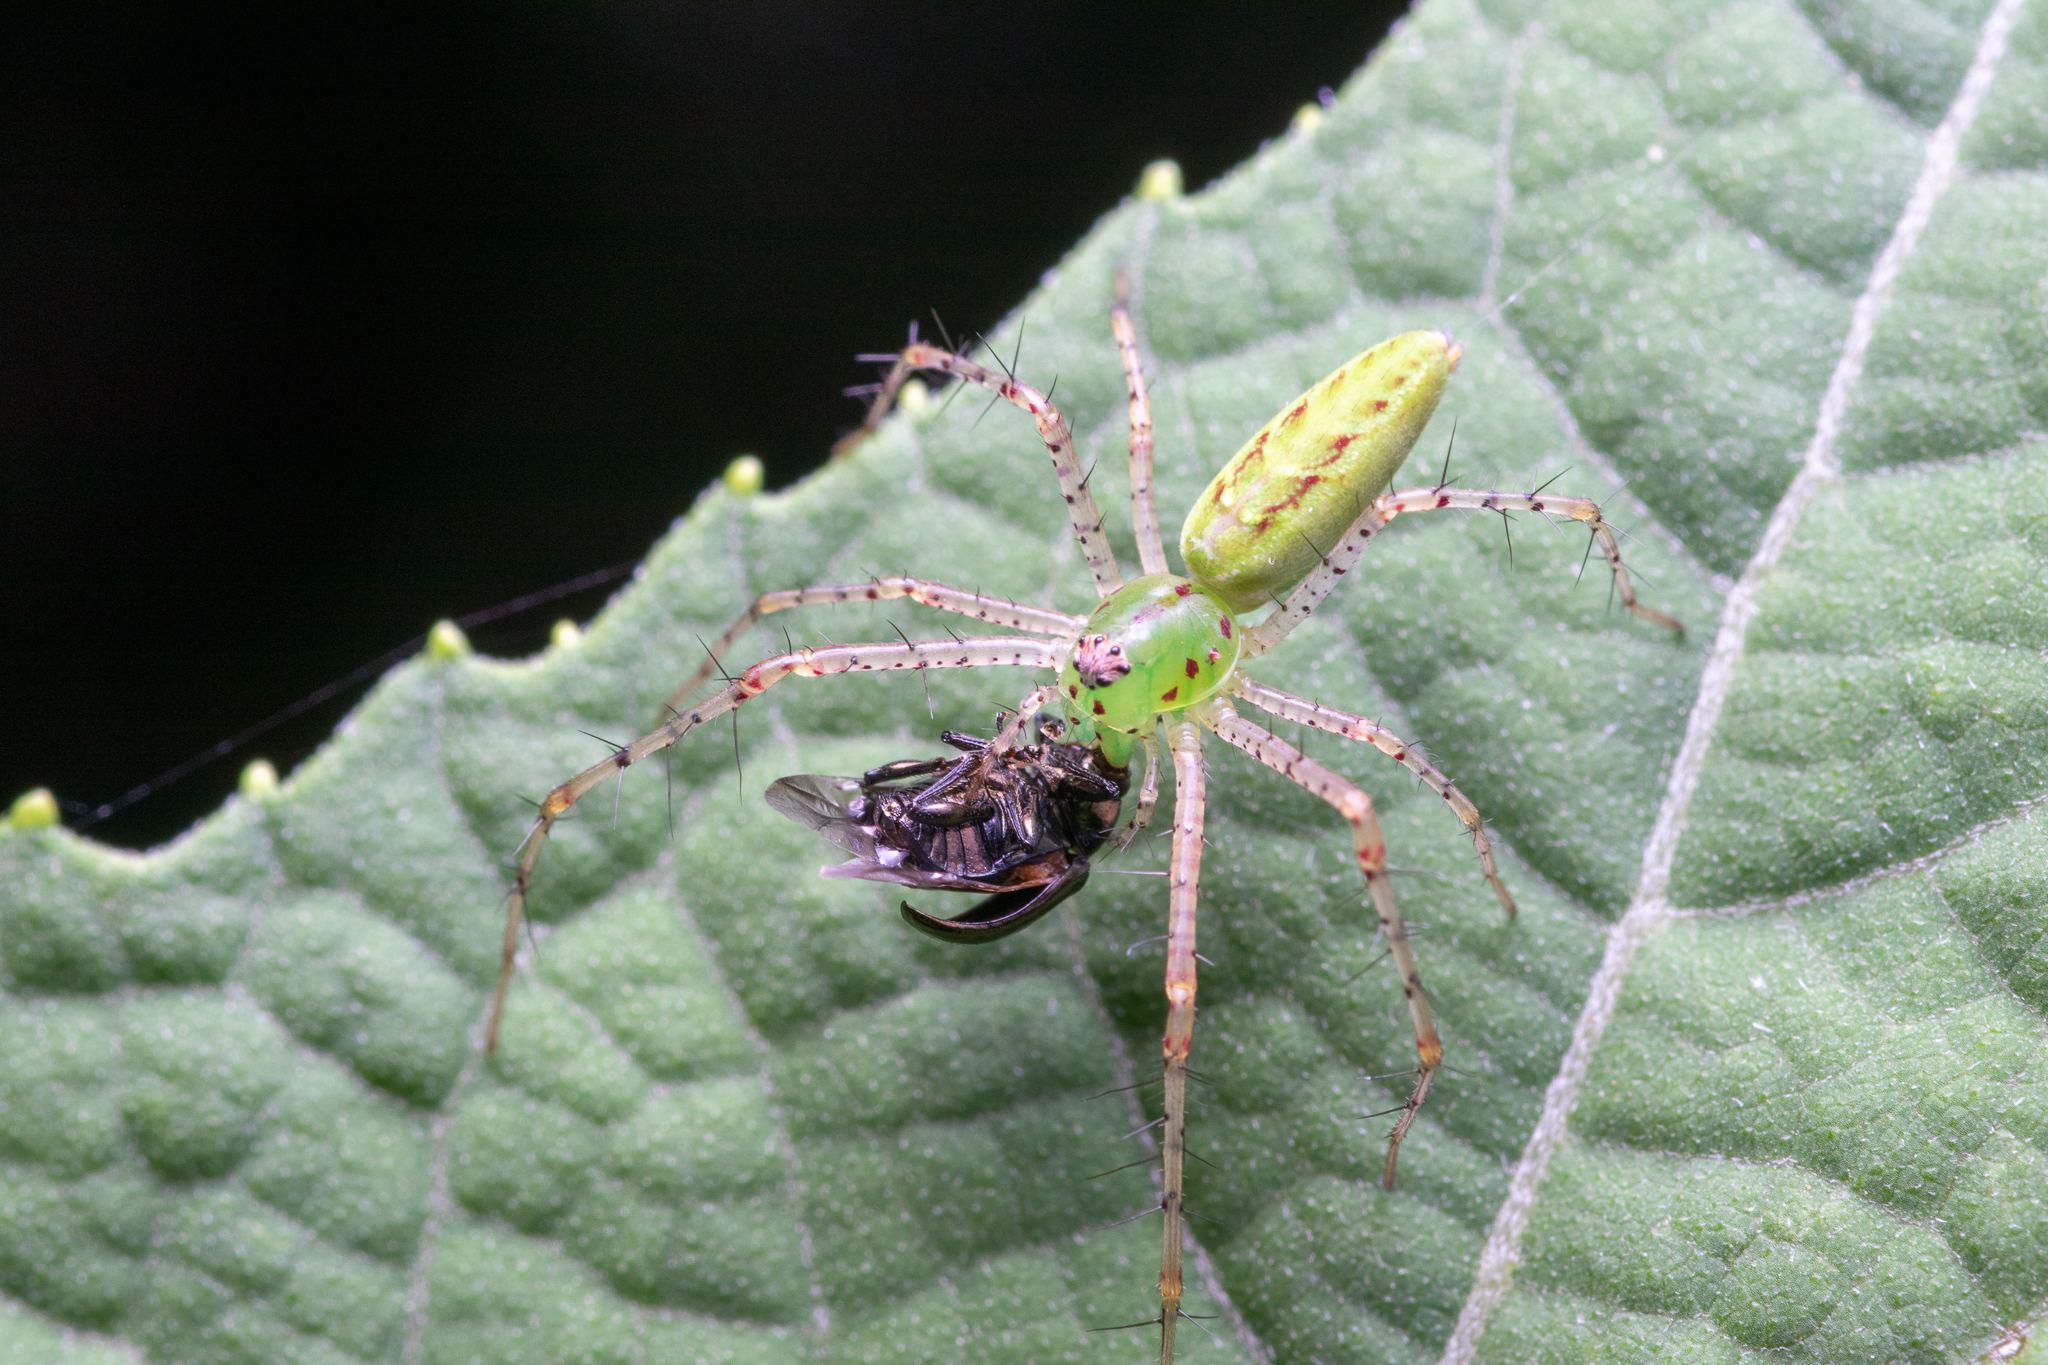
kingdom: Animalia
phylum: Arthropoda
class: Arachnida
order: Araneae
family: Oxyopidae
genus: Peucetia
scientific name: Peucetia viridans
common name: Lynx spiders
